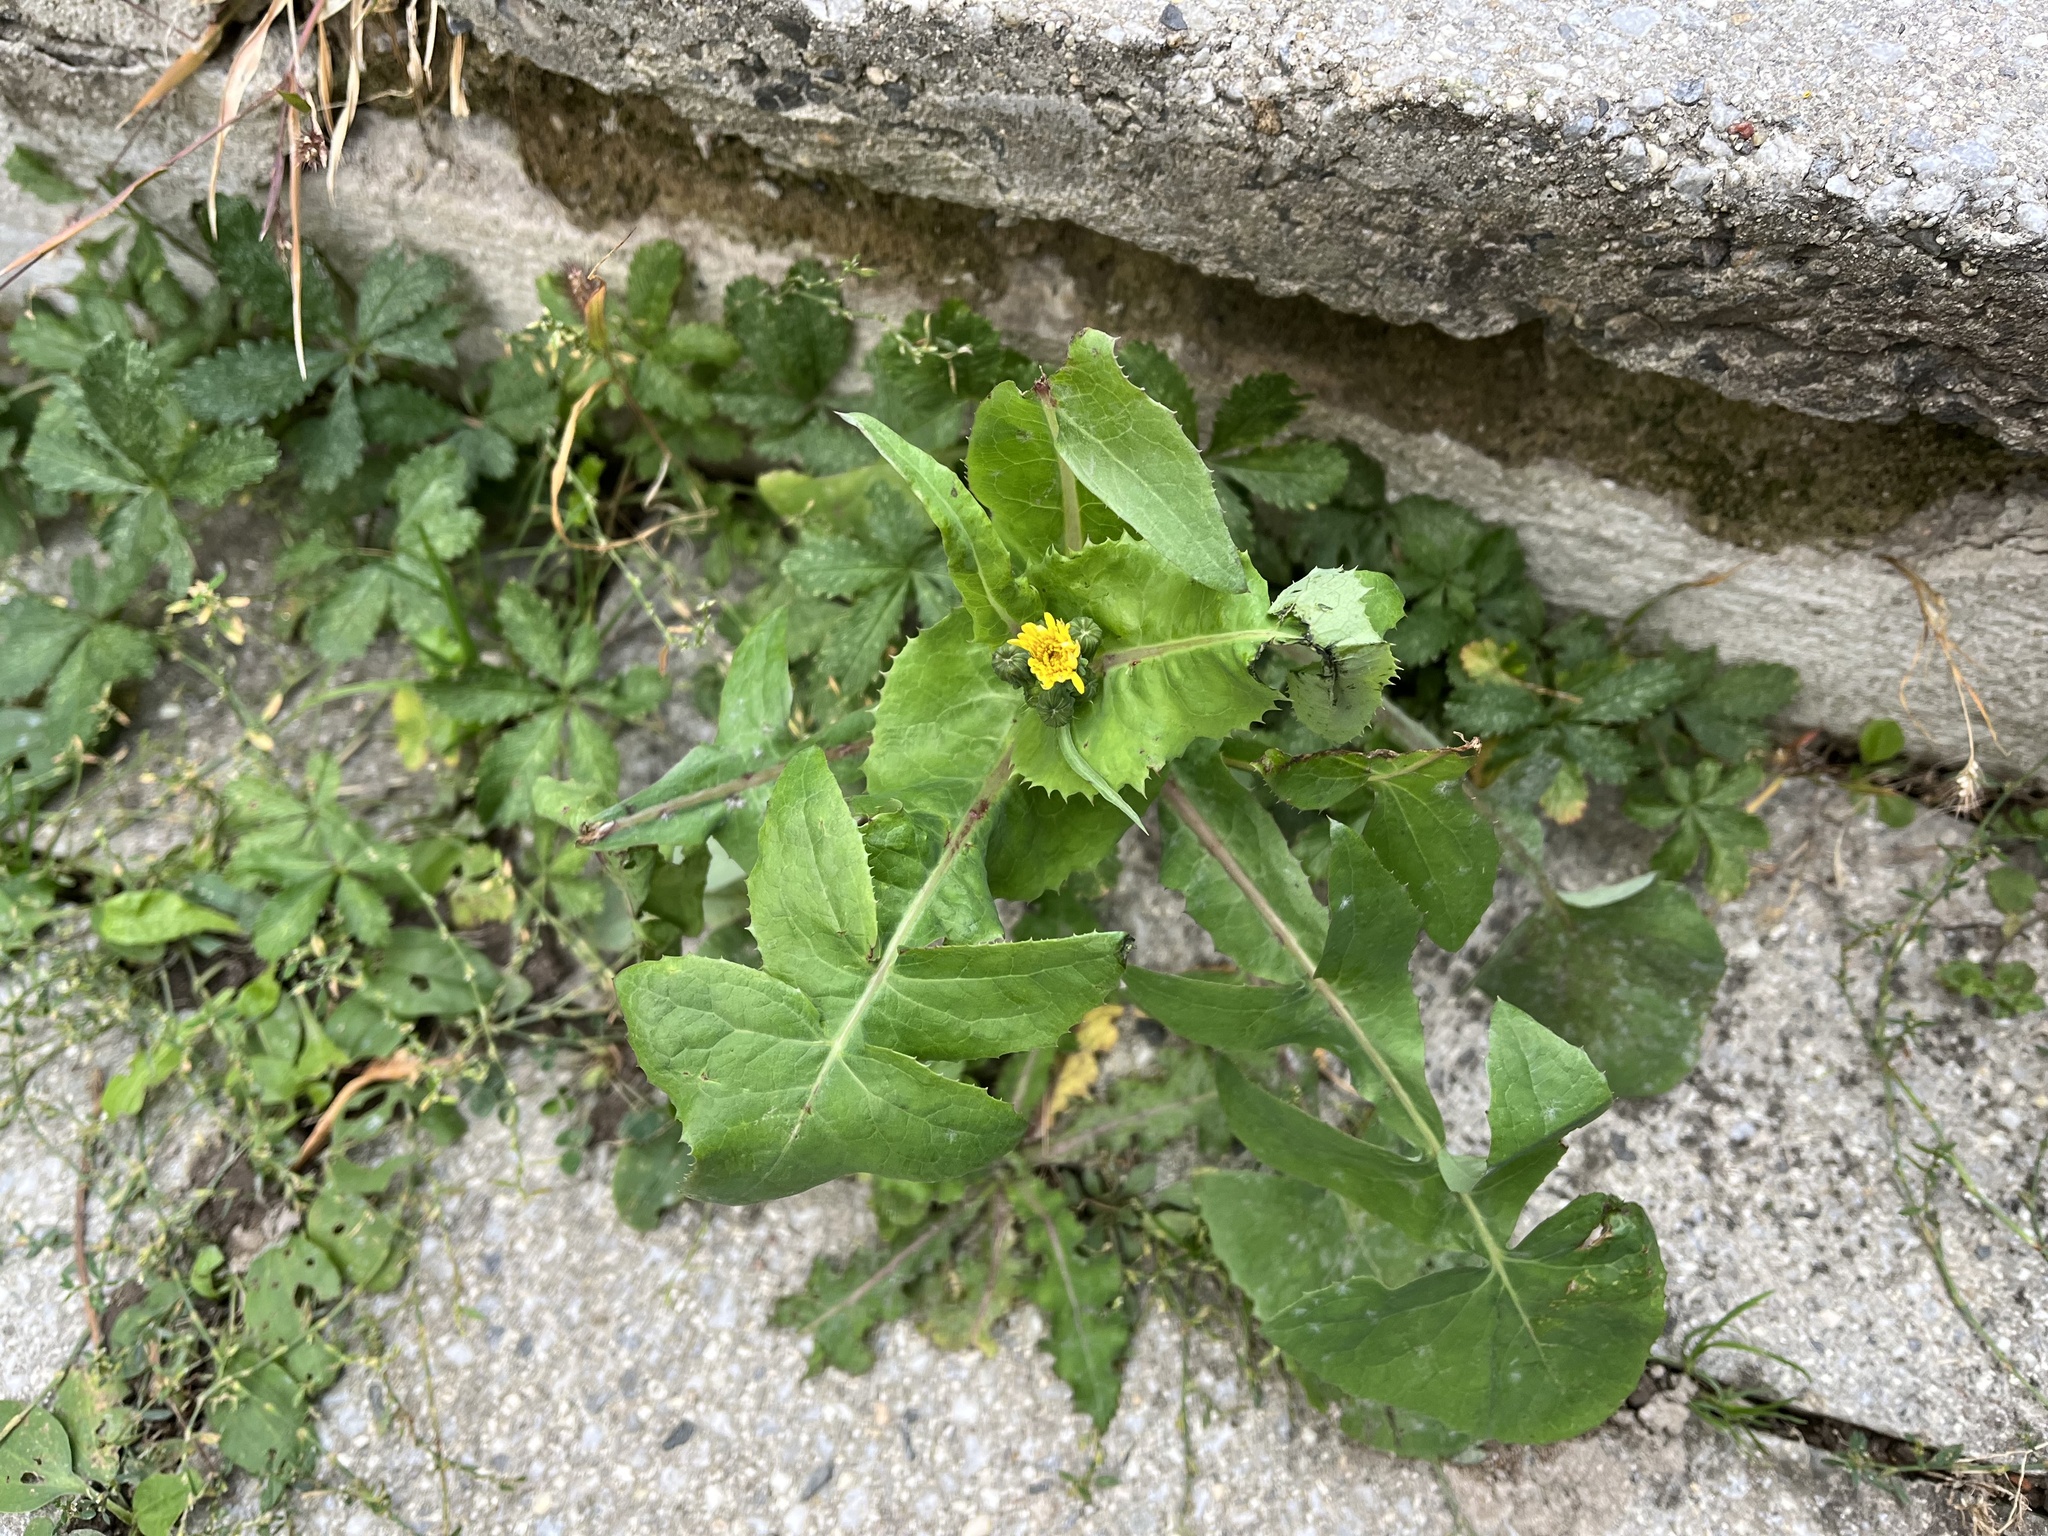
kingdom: Plantae
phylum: Tracheophyta
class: Magnoliopsida
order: Asterales
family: Asteraceae
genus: Sonchus
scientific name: Sonchus oleraceus
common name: Common sowthistle
